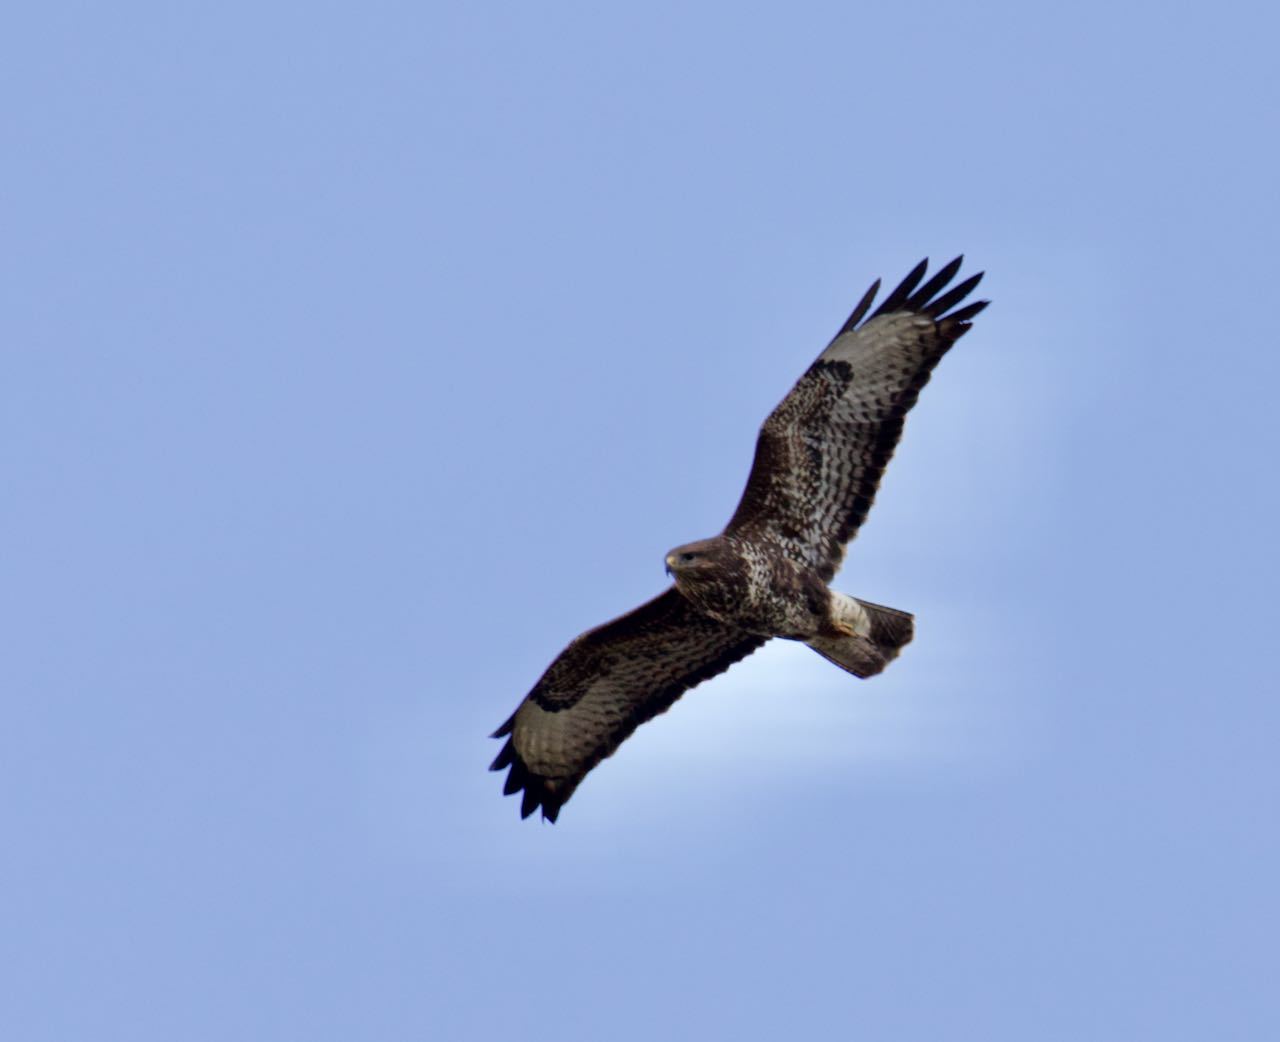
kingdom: Animalia
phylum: Chordata
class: Aves
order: Accipitriformes
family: Accipitridae
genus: Buteo
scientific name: Buteo buteo
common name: Common buzzard
